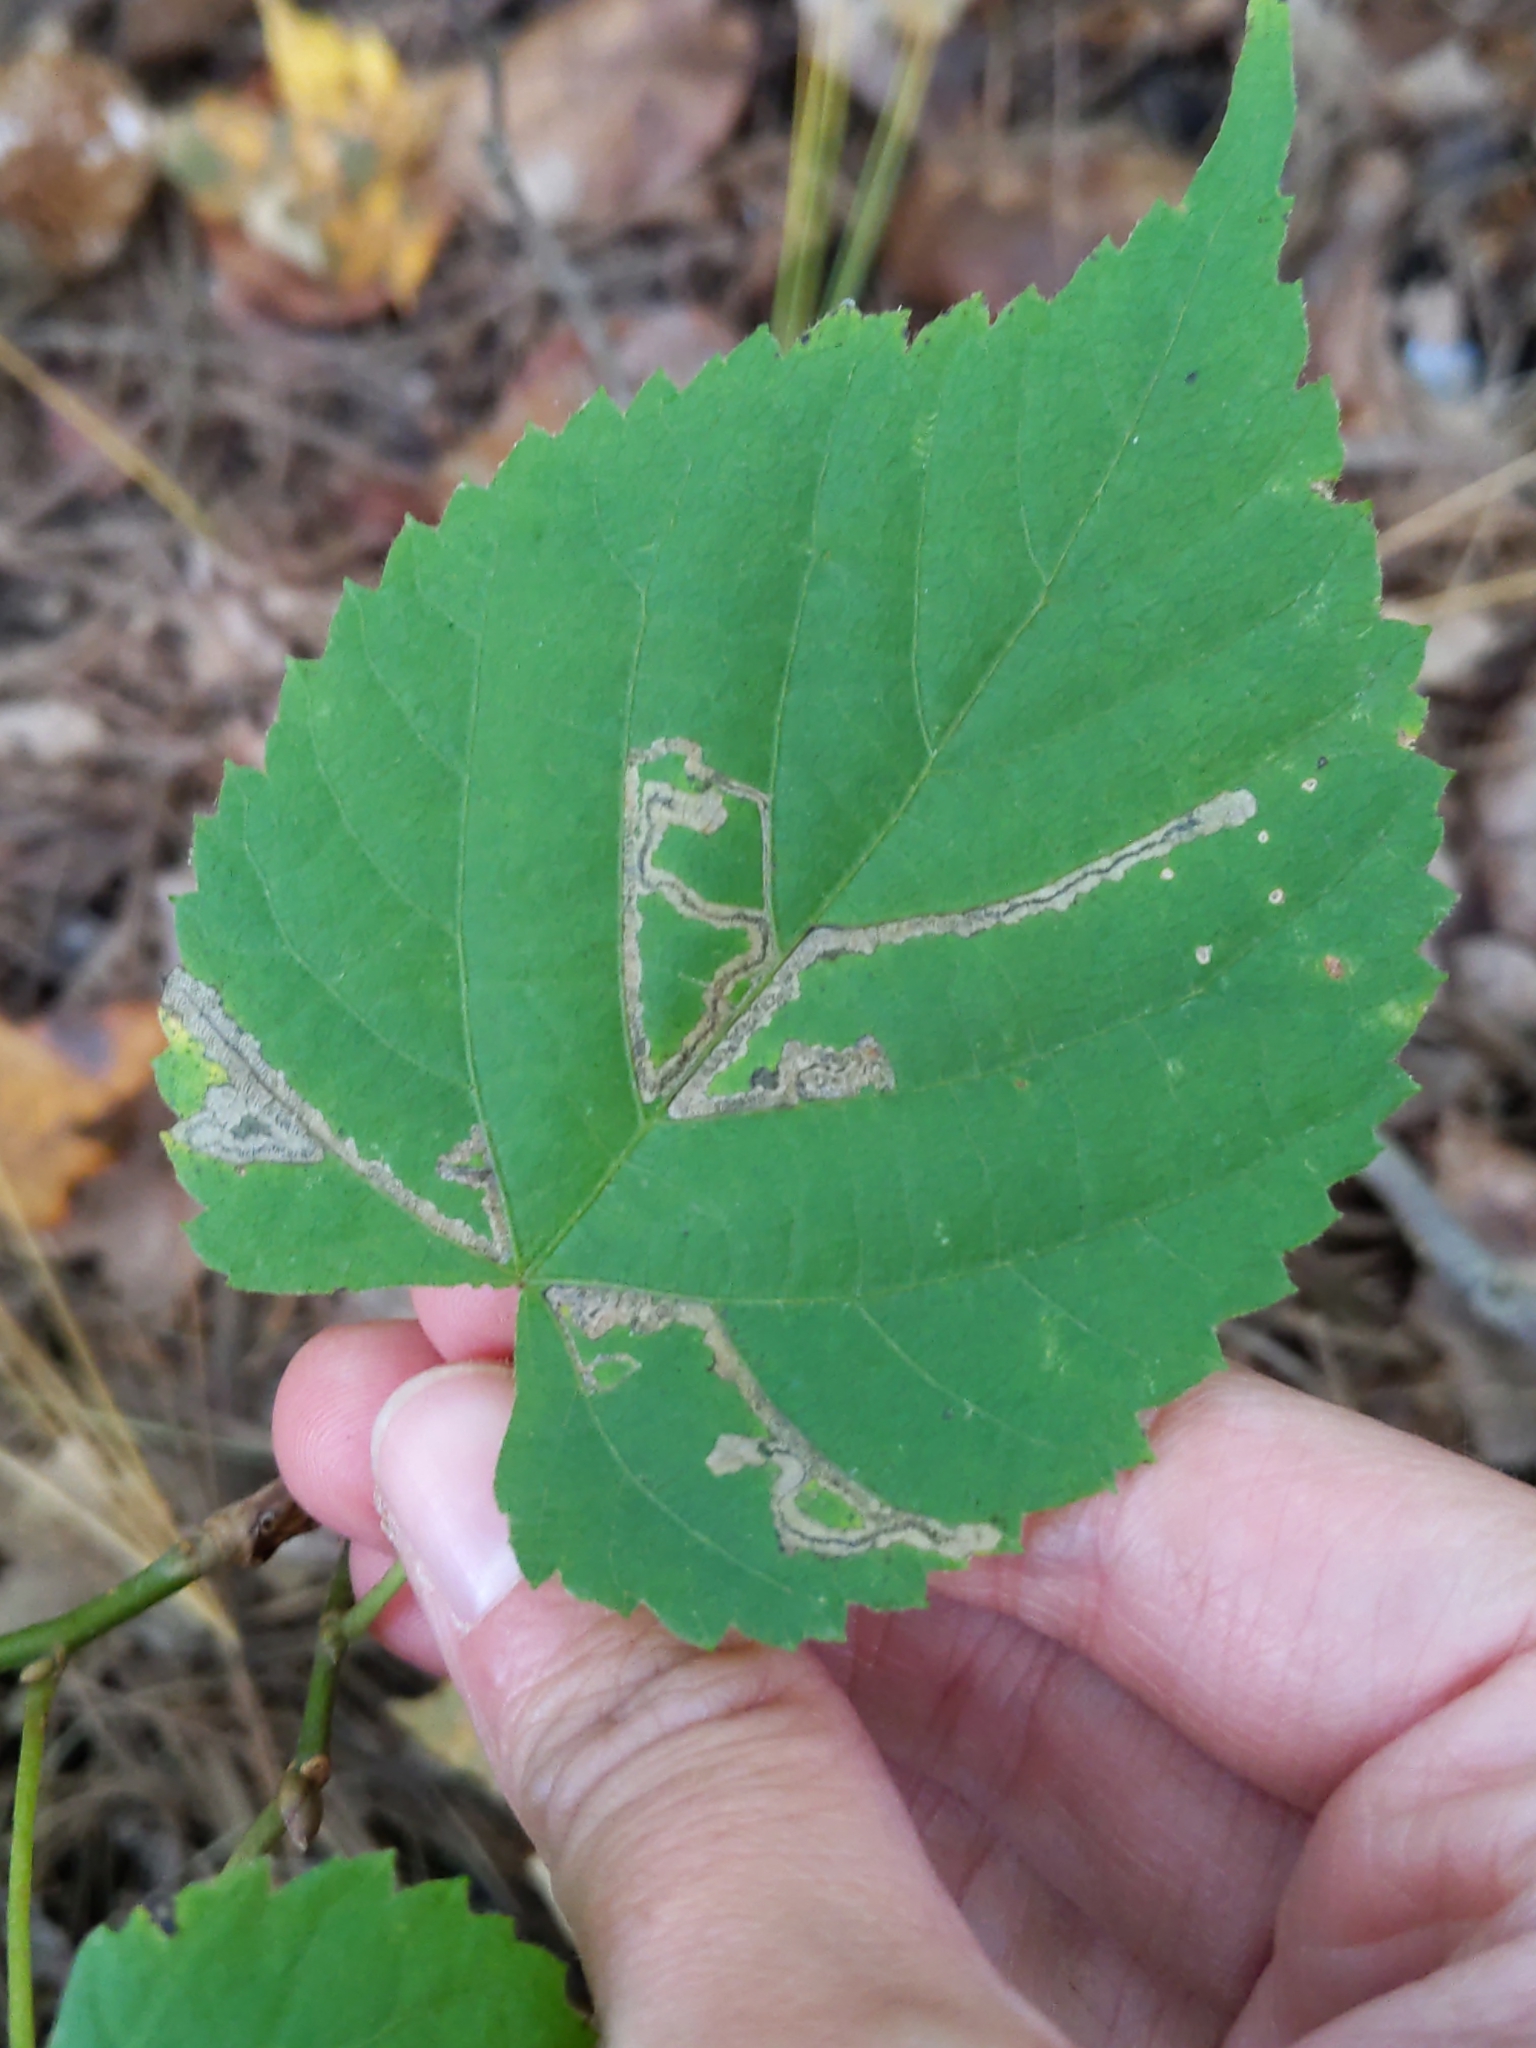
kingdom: Animalia
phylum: Arthropoda
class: Insecta
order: Lepidoptera
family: Nepticulidae
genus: Stigmella
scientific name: Stigmella tiliella
